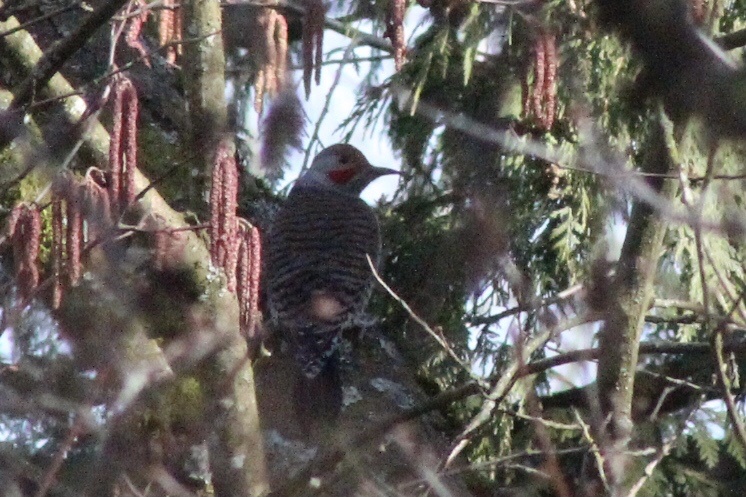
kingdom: Animalia
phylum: Chordata
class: Aves
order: Piciformes
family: Picidae
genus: Colaptes
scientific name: Colaptes auratus
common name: Northern flicker
